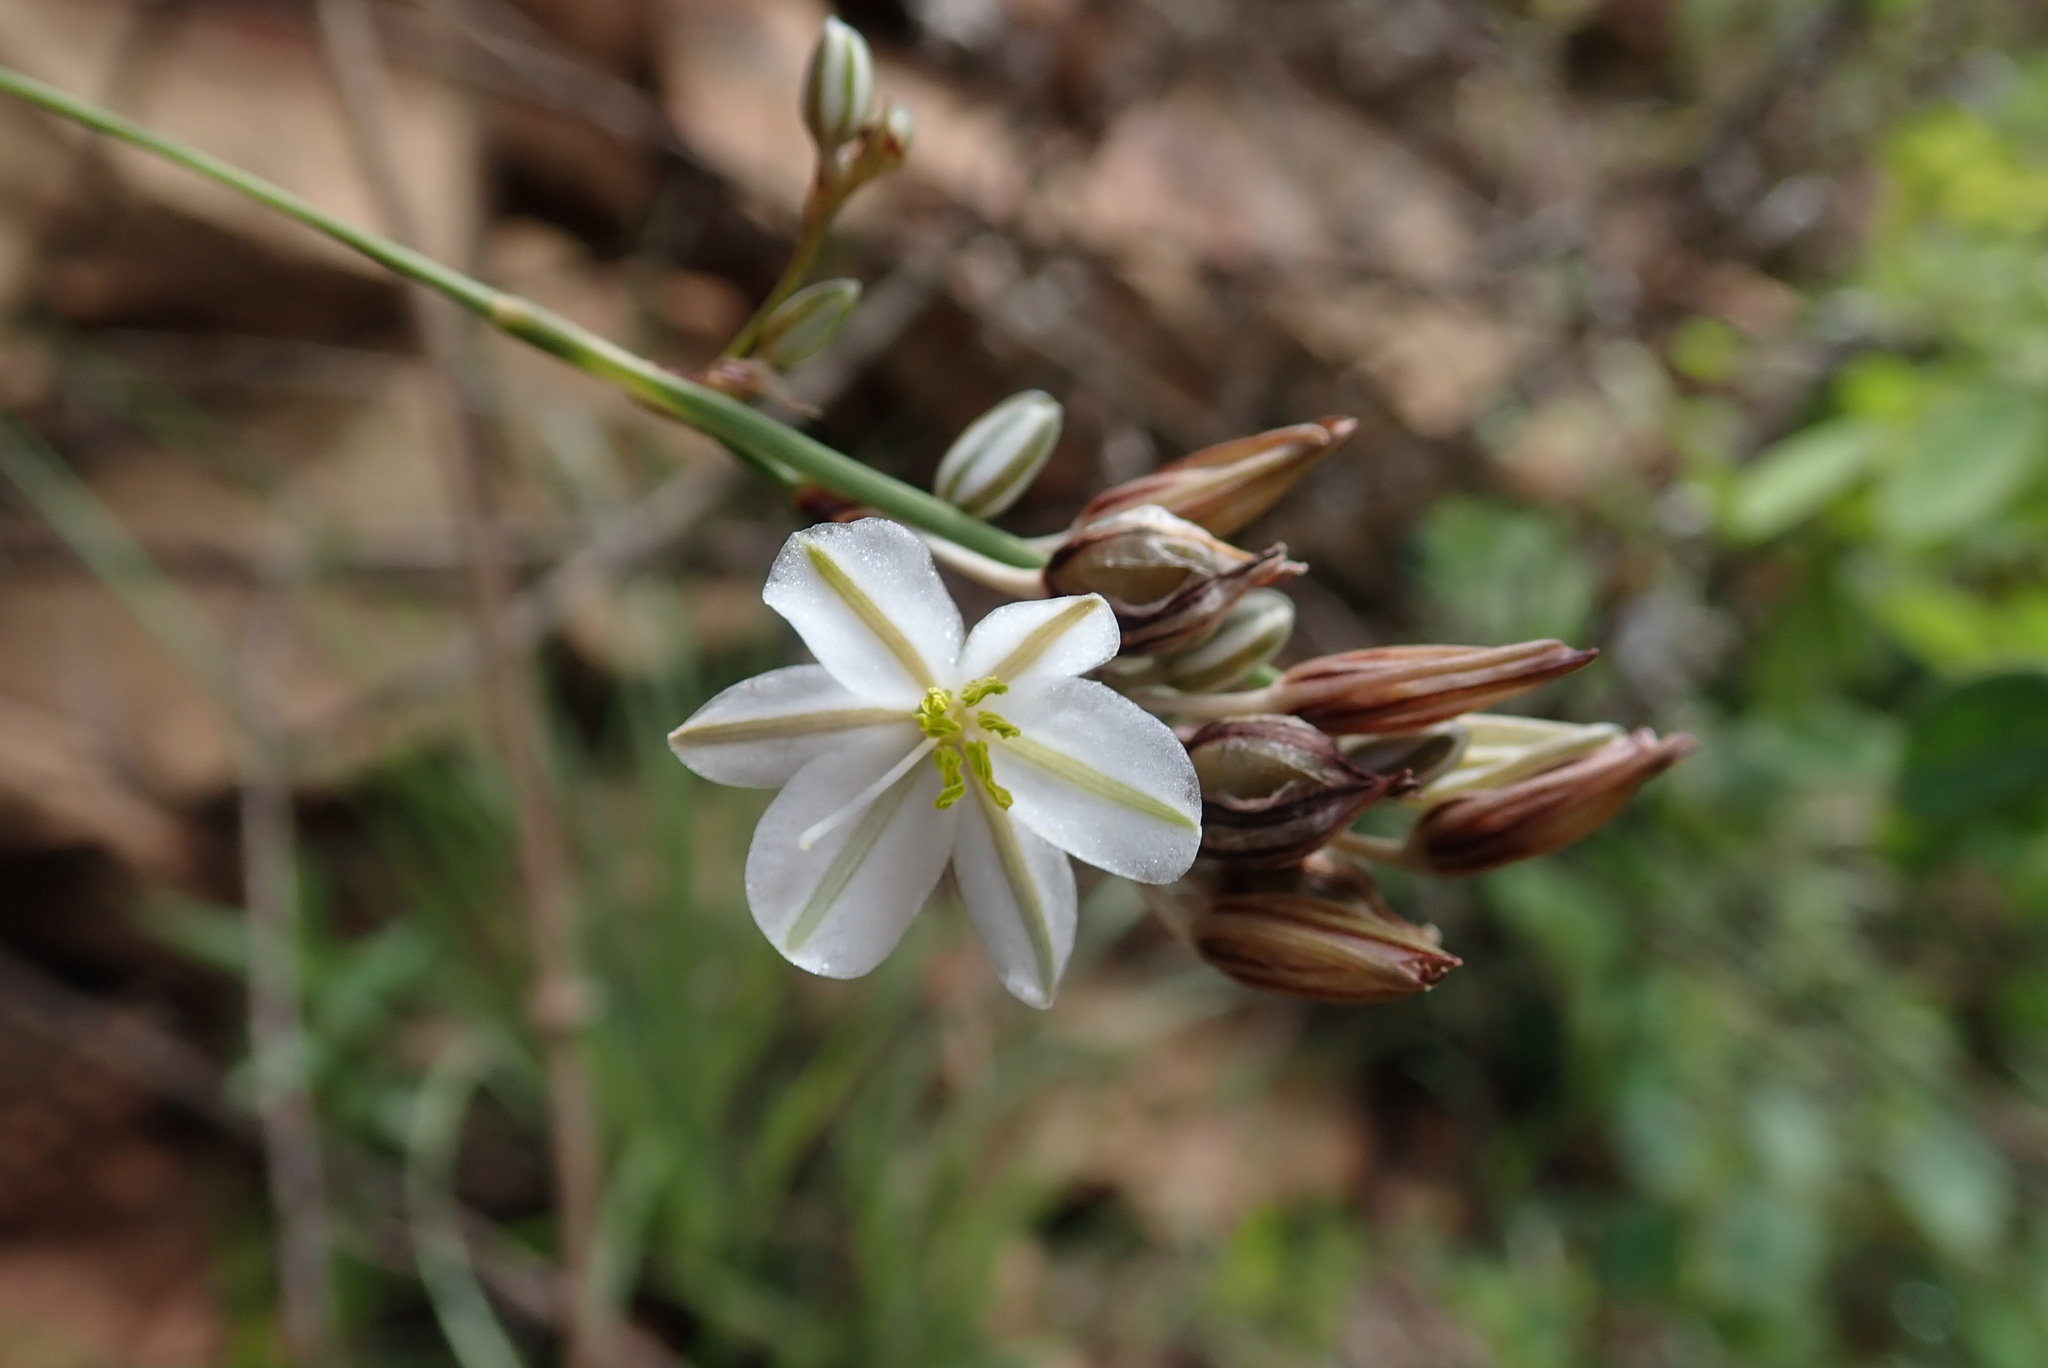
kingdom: Plantae
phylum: Tracheophyta
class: Liliopsida
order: Asparagales
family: Asparagaceae
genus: Chlorophytum
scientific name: Chlorophytum cooperi
